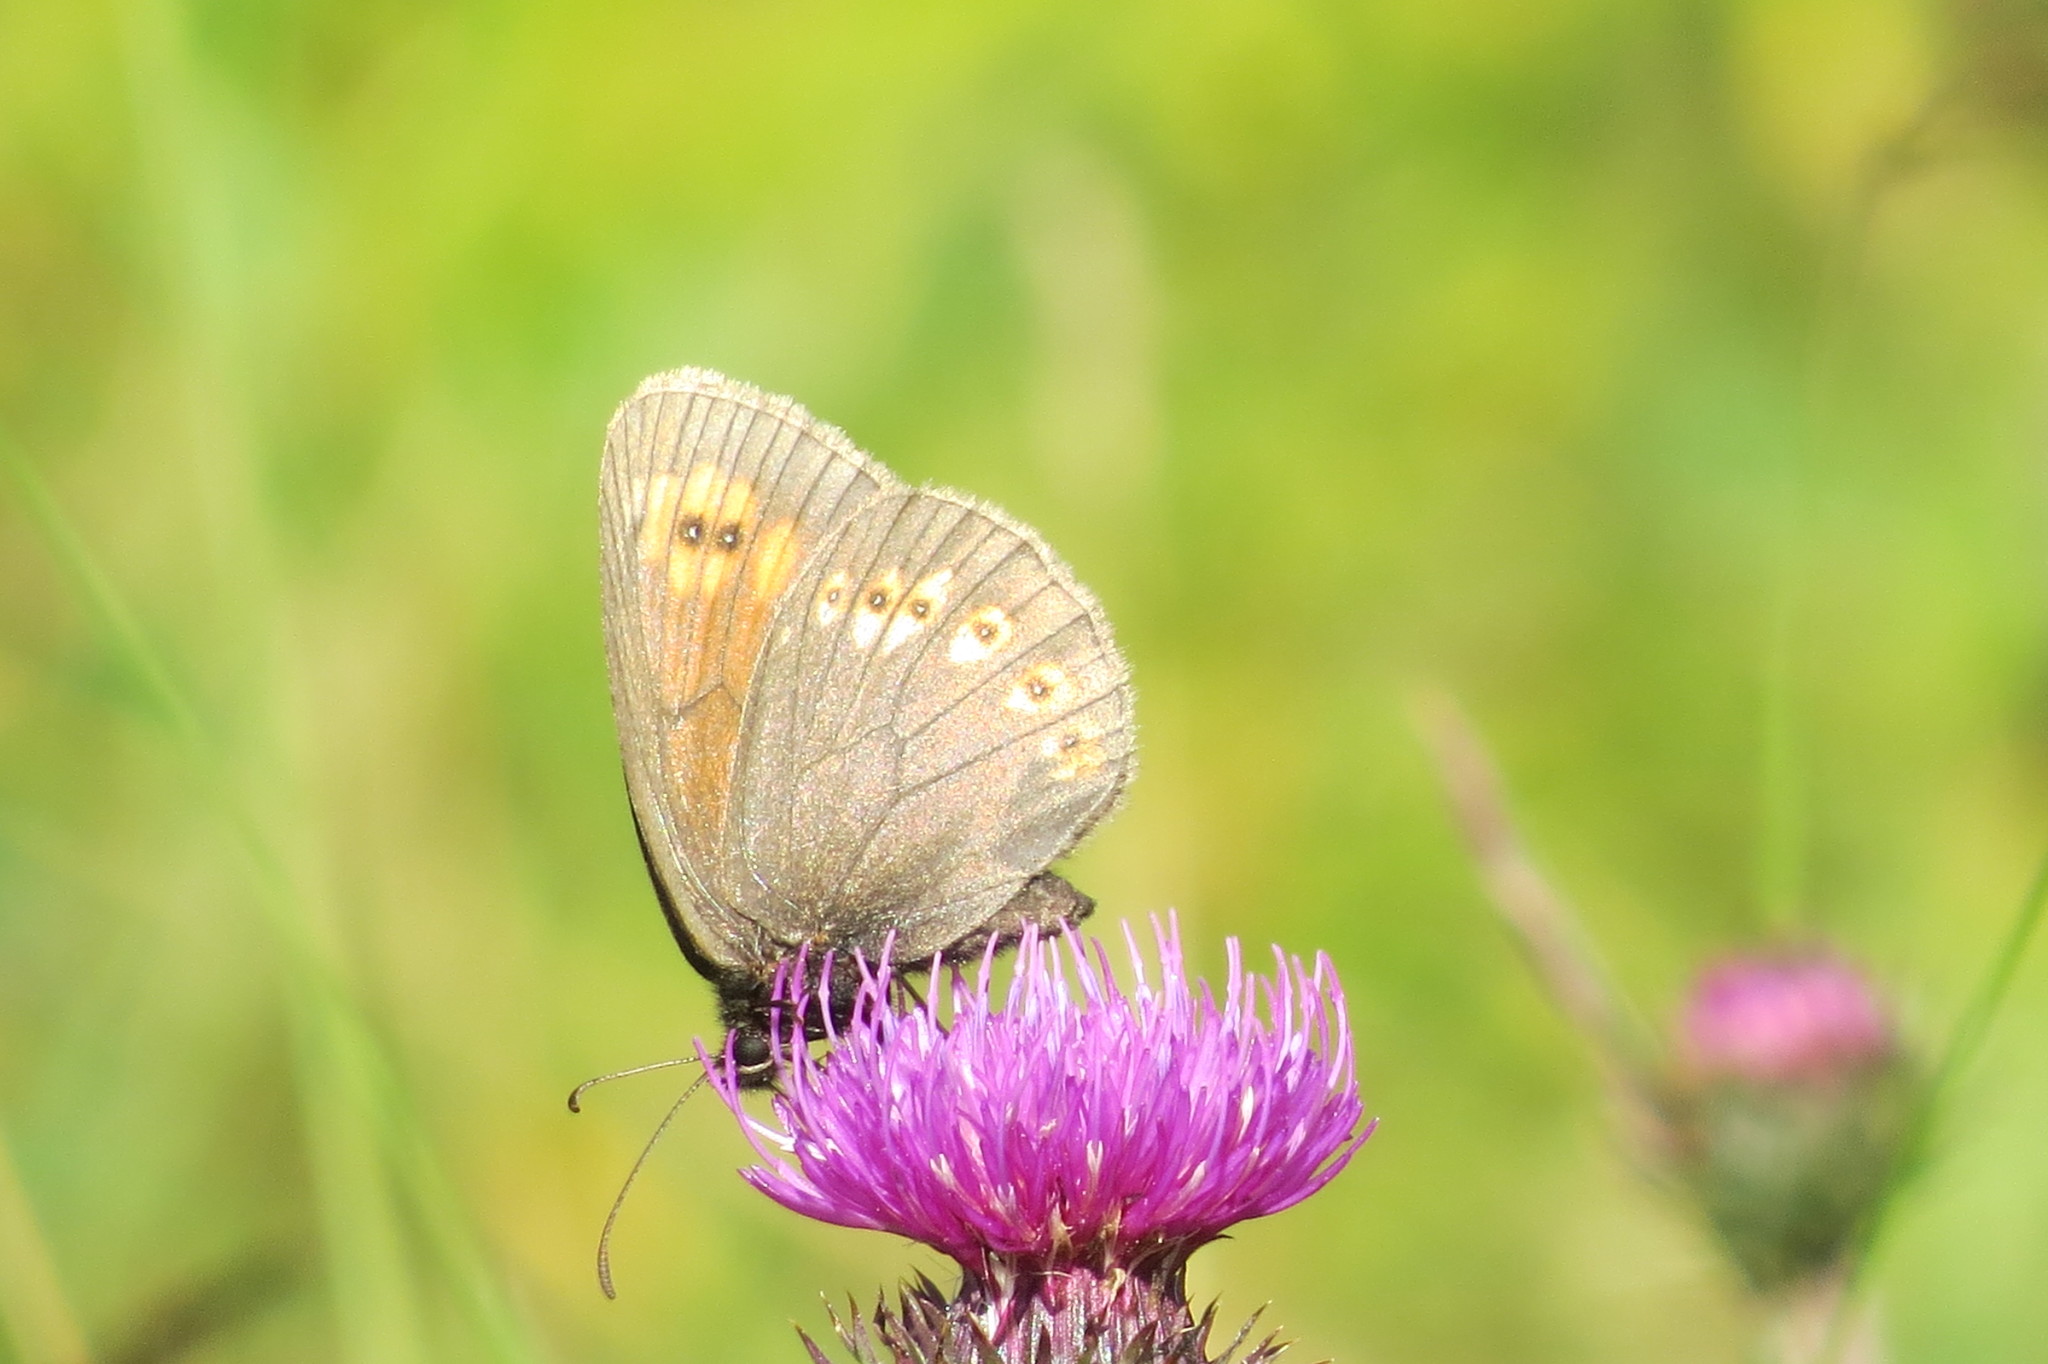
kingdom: Animalia
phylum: Arthropoda
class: Insecta
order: Lepidoptera
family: Nymphalidae
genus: Erebia
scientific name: Erebia alberganus
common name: Almond-eyed ringlet
